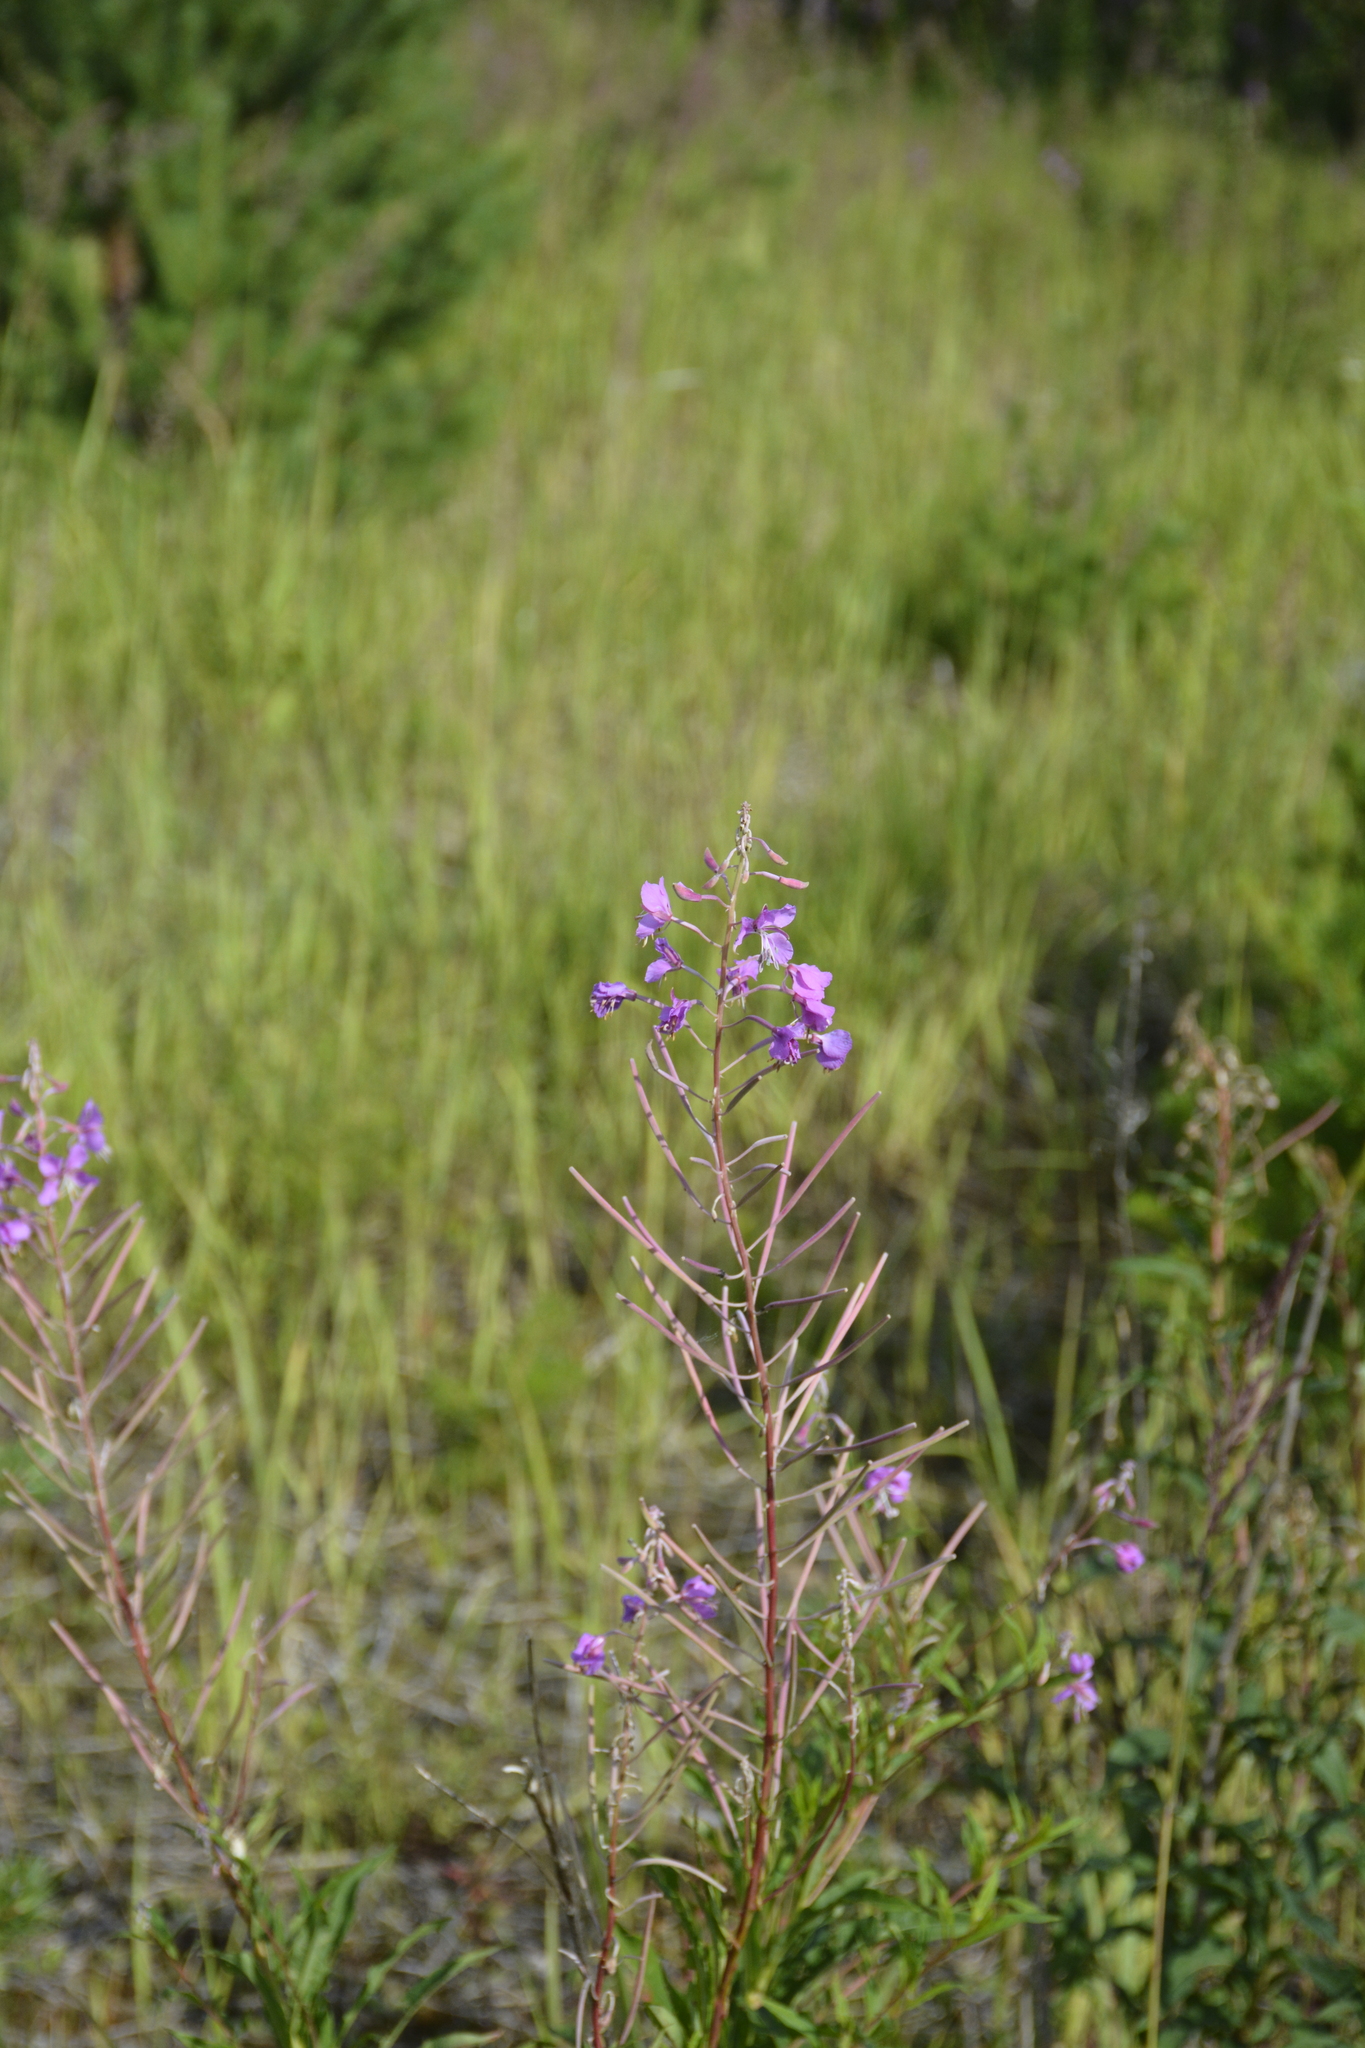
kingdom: Plantae
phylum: Tracheophyta
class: Magnoliopsida
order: Myrtales
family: Onagraceae
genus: Chamaenerion
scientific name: Chamaenerion angustifolium
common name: Fireweed
